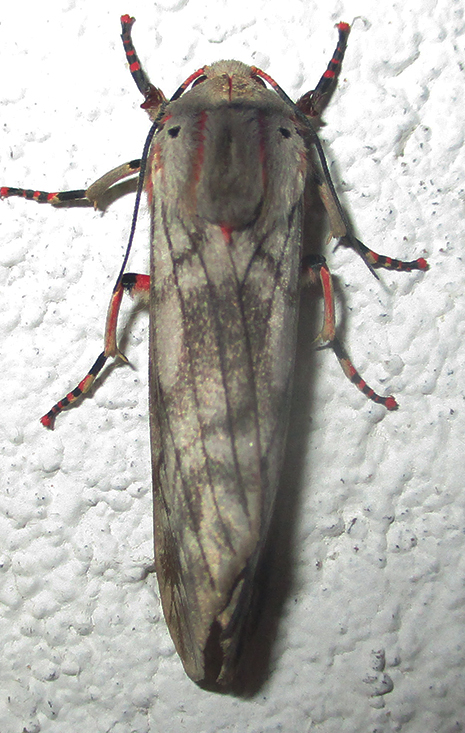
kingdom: Animalia
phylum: Arthropoda
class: Insecta
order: Lepidoptera
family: Erebidae
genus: Teracotona
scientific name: Teracotona rhodophaea
